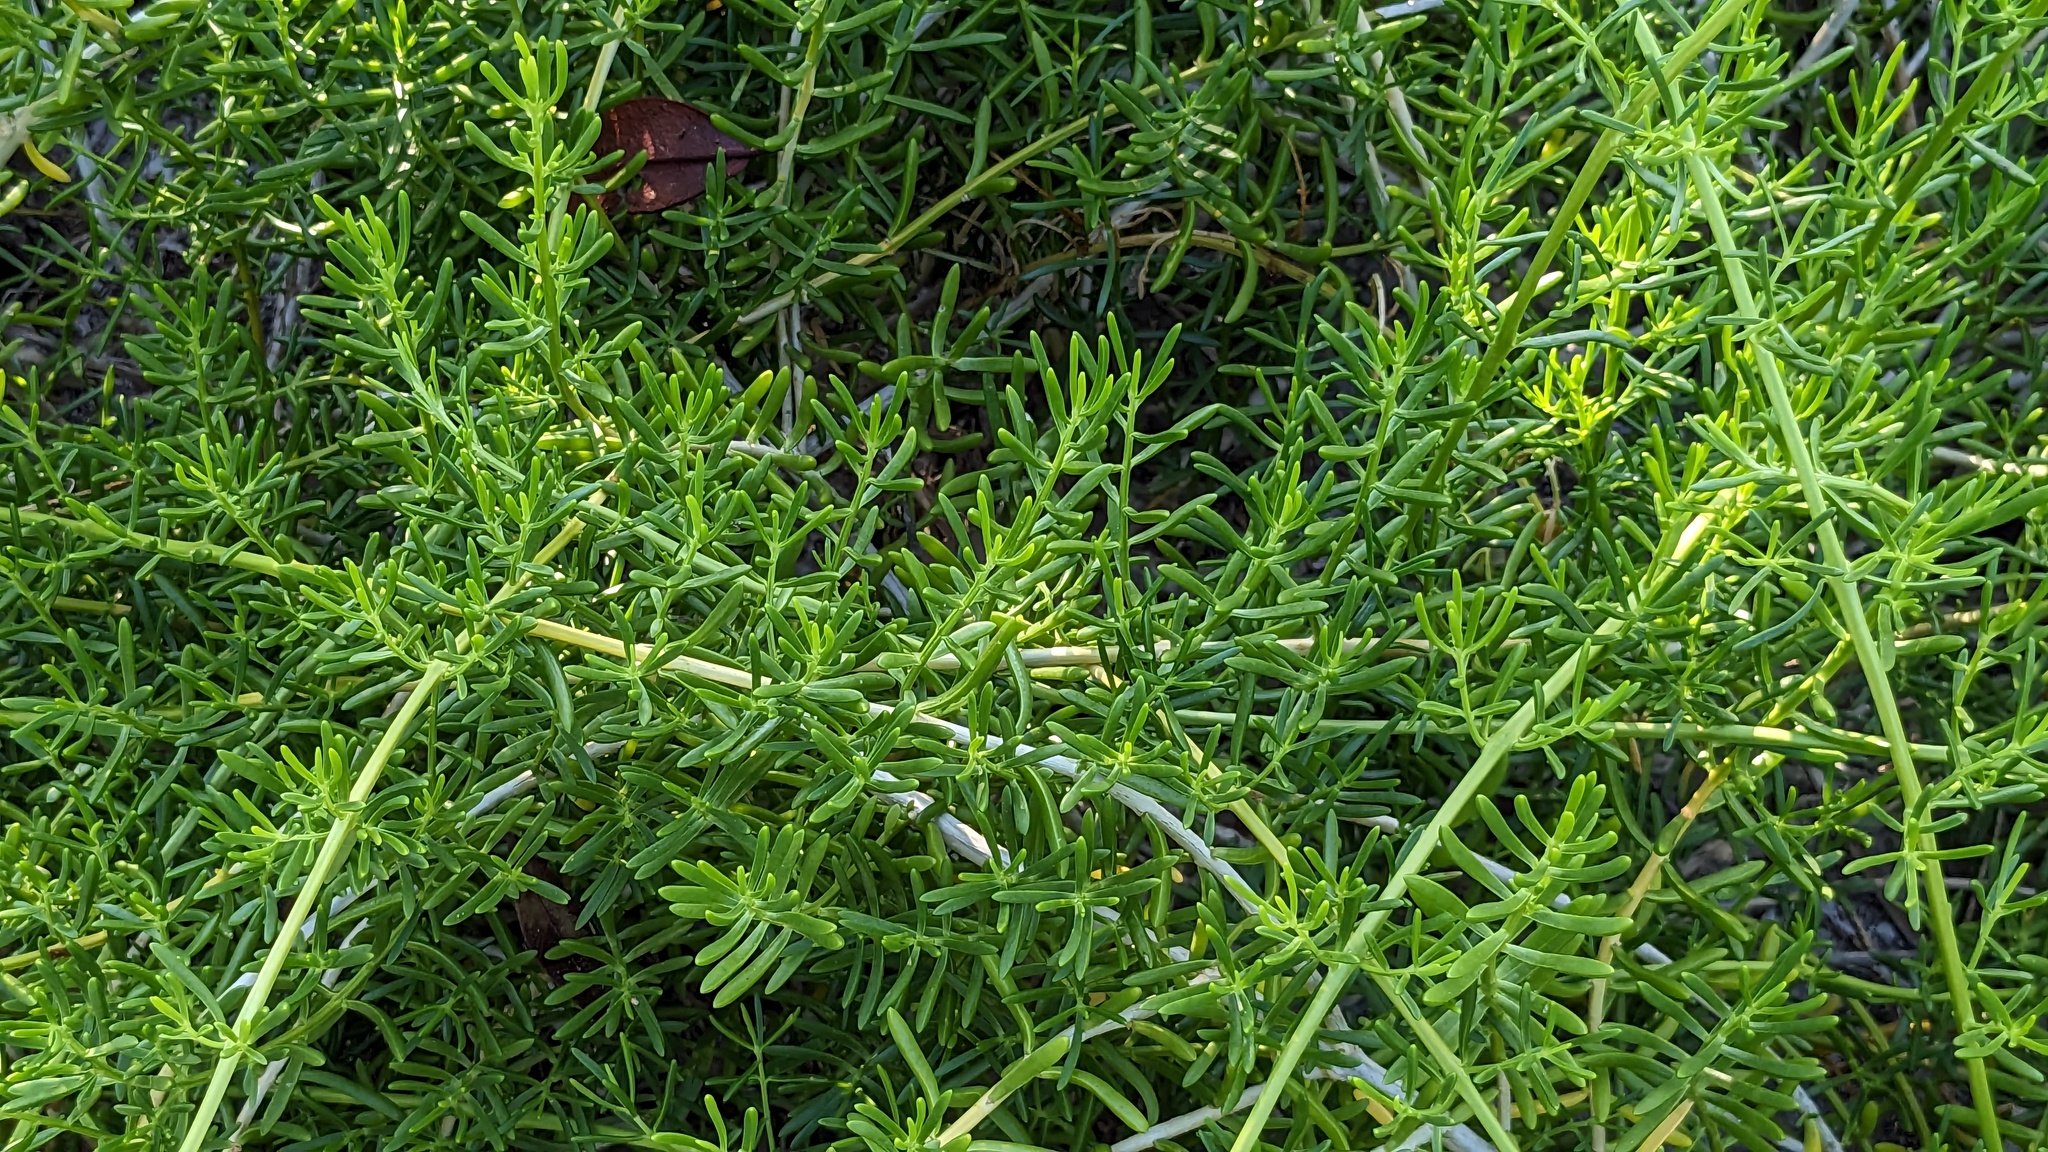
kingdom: Plantae
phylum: Tracheophyta
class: Magnoliopsida
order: Brassicales
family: Bataceae
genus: Batis
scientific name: Batis maritima
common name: Turtleweed
